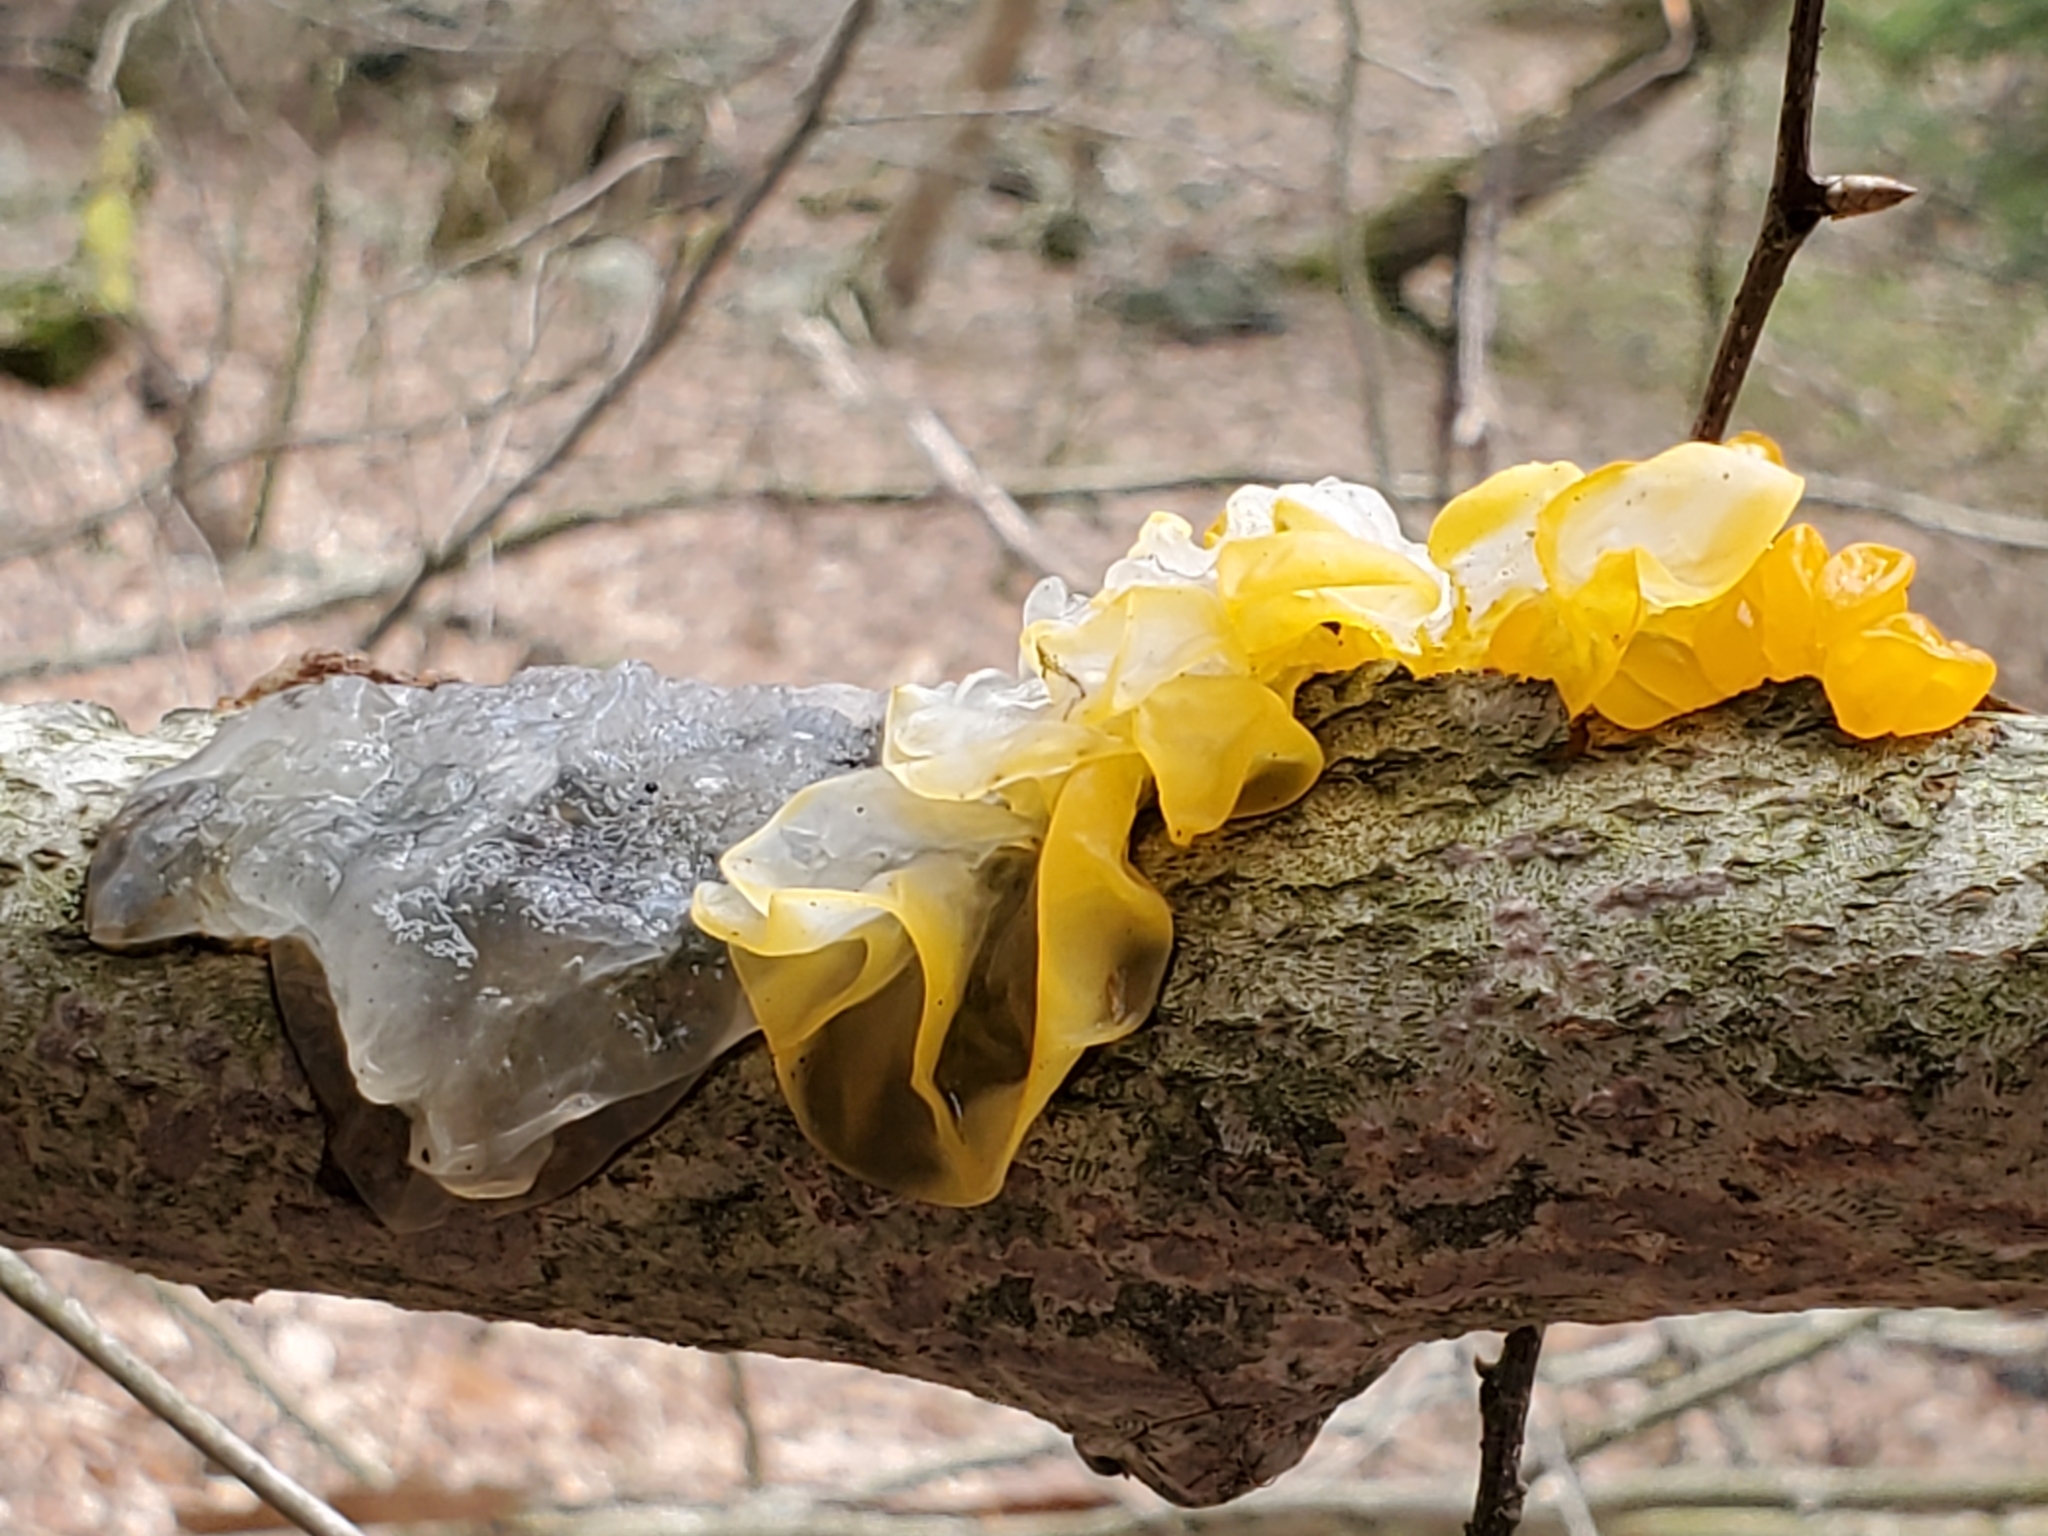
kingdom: Fungi
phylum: Basidiomycota
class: Agaricomycetes
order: Auriculariales
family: Hyaloriaceae
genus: Myxarium
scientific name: Myxarium nucleatum
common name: Crystal brain fungus
